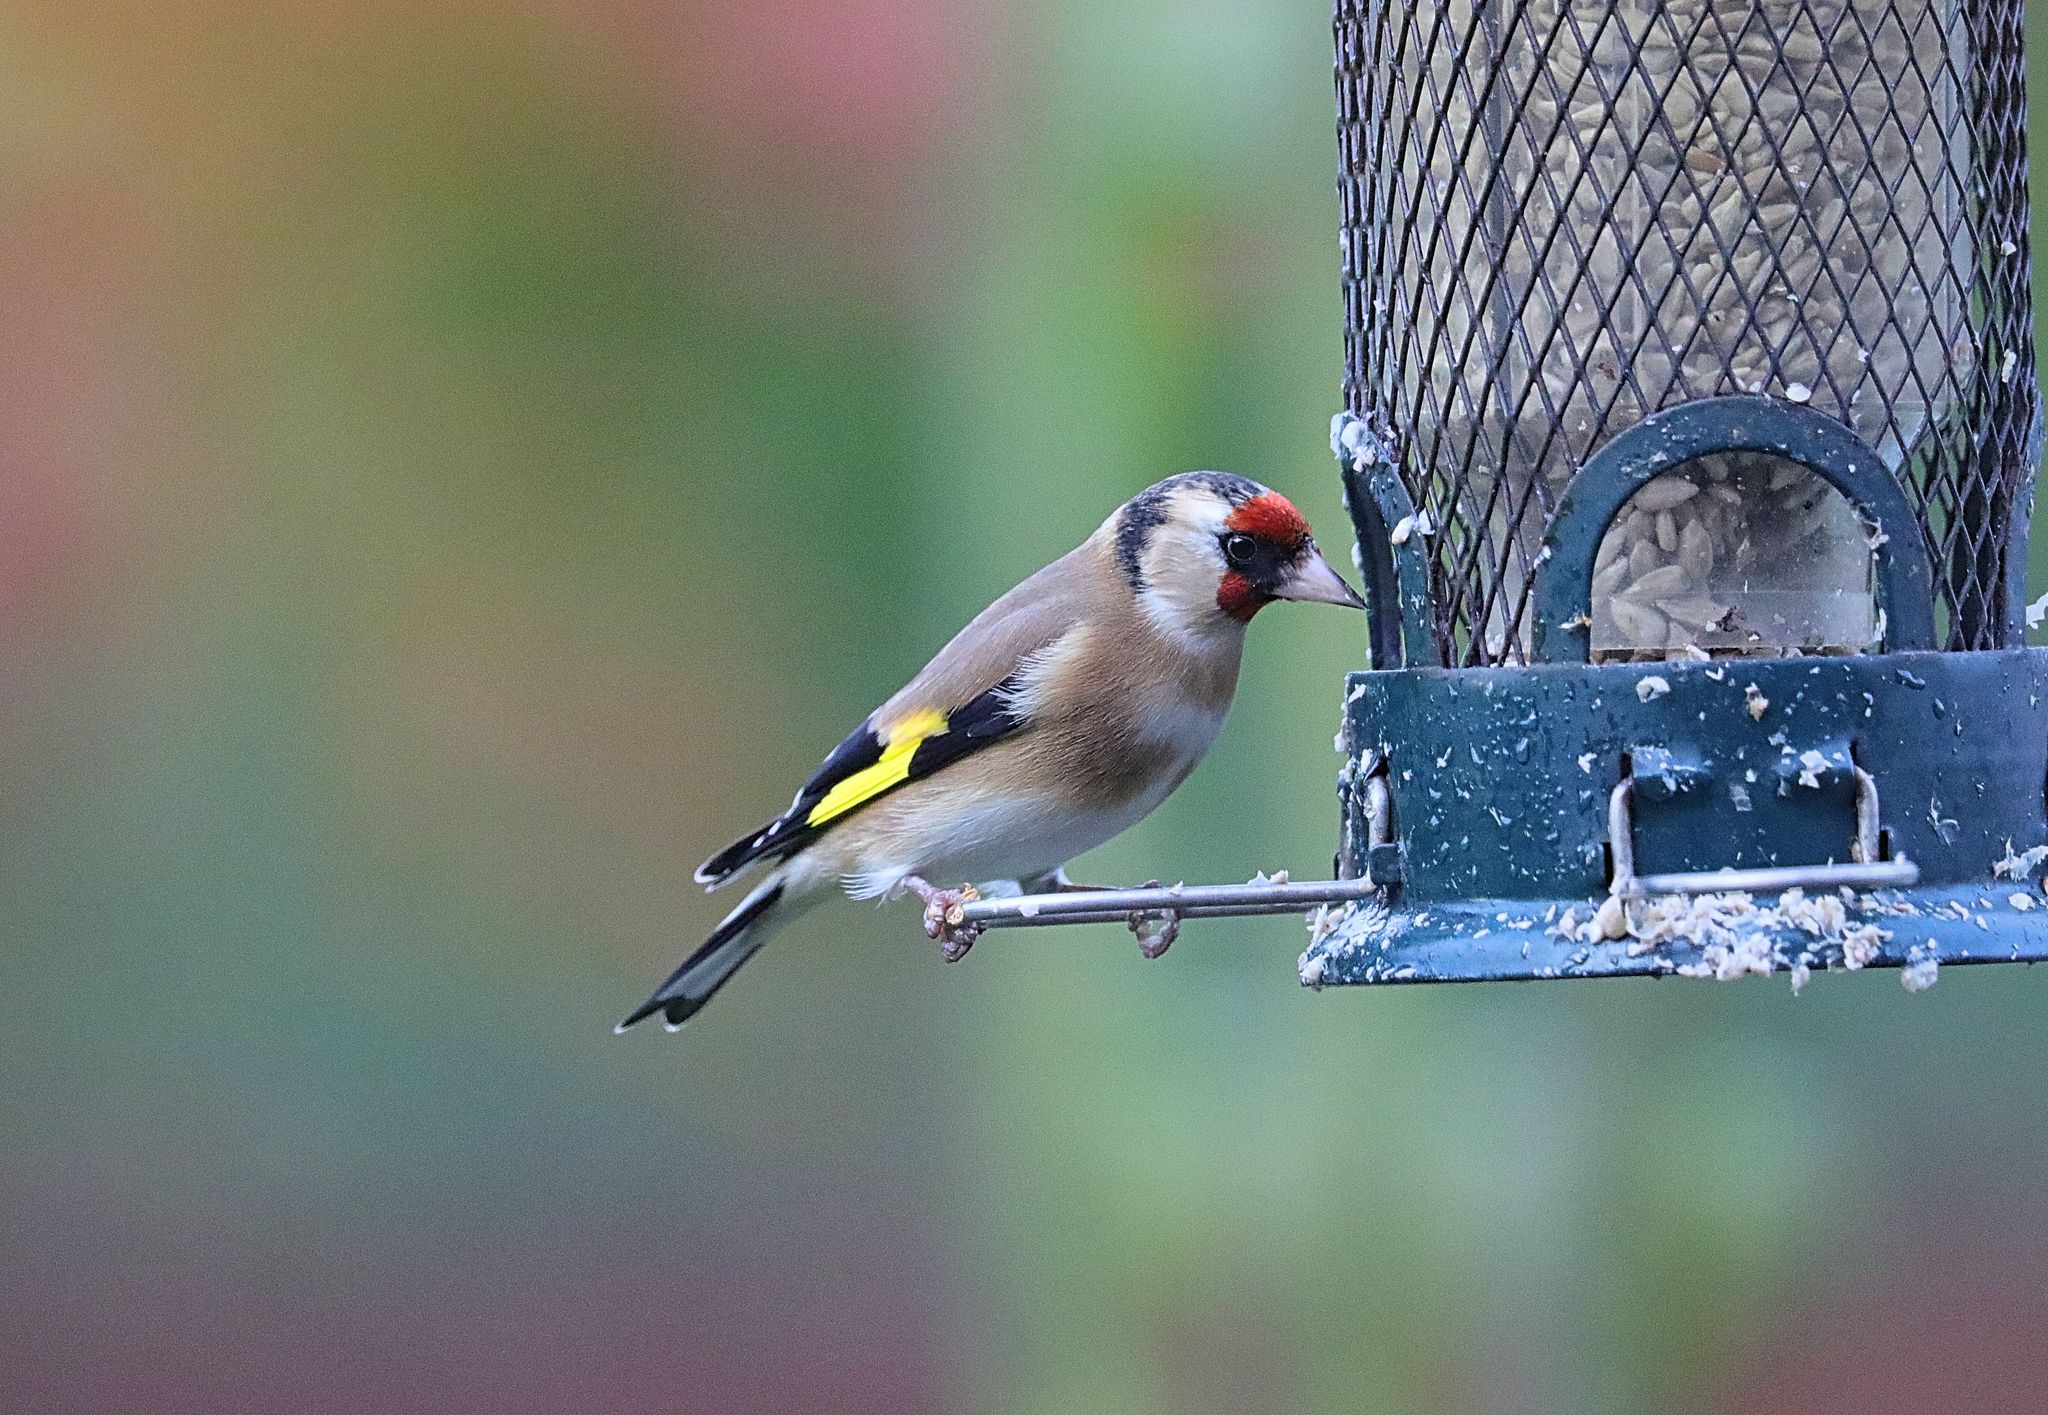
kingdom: Animalia
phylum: Chordata
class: Aves
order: Passeriformes
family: Fringillidae
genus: Carduelis
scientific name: Carduelis carduelis
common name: European goldfinch
